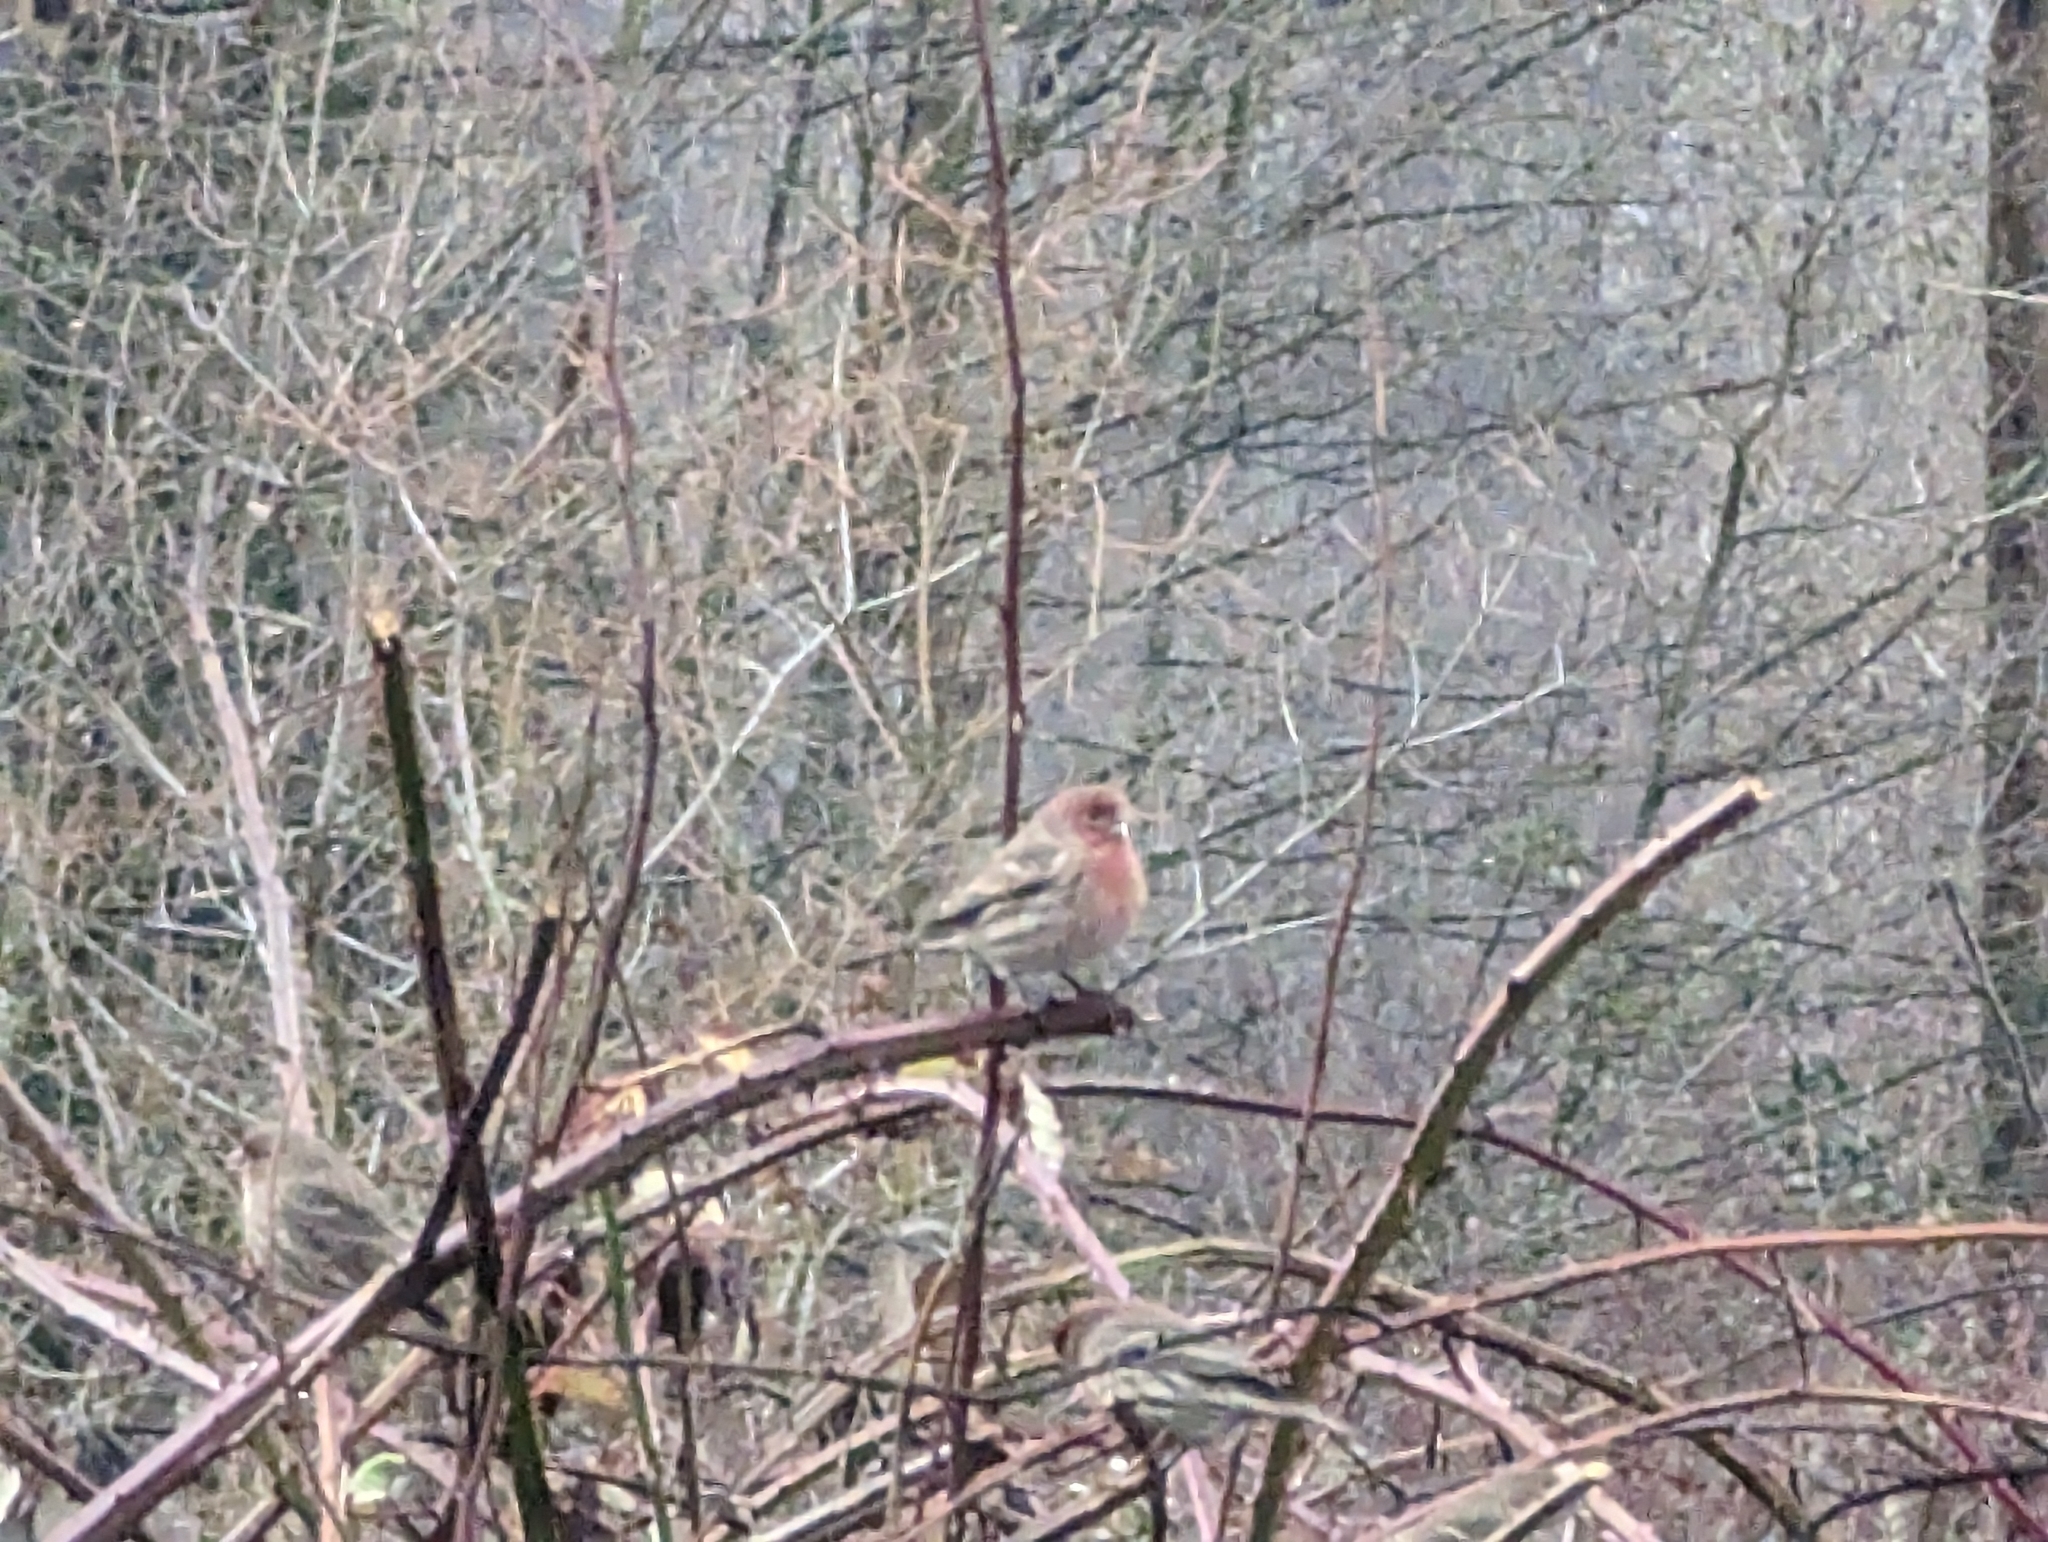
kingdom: Animalia
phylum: Chordata
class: Aves
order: Passeriformes
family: Fringillidae
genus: Haemorhous
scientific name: Haemorhous mexicanus
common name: House finch
